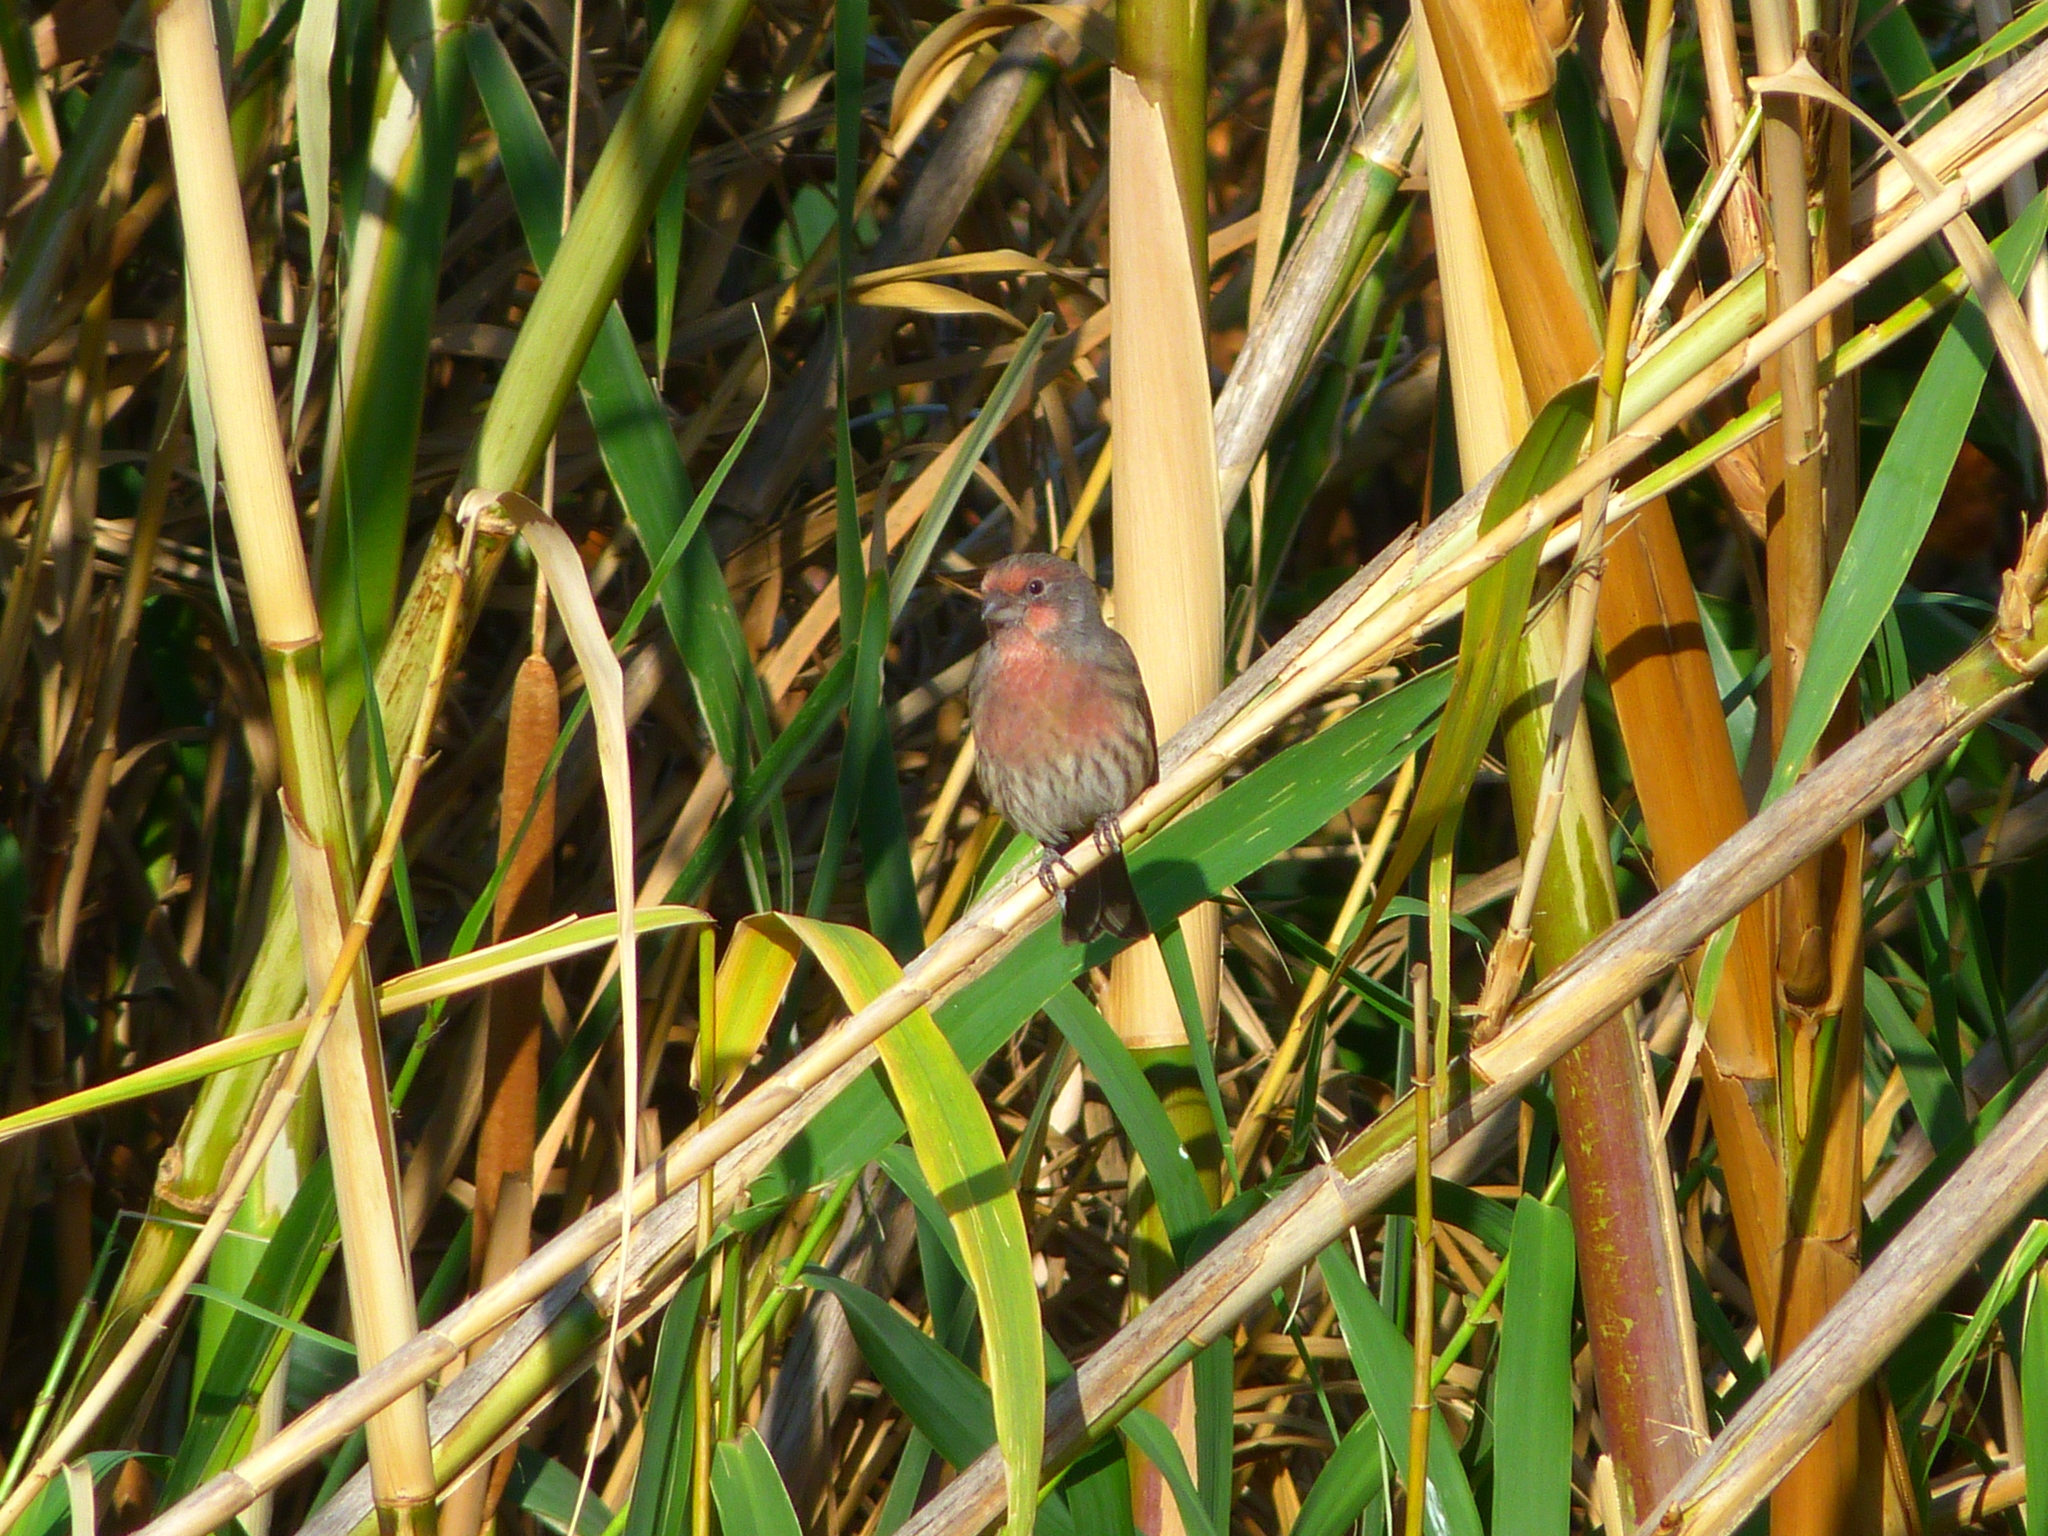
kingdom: Animalia
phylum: Chordata
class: Aves
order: Passeriformes
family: Fringillidae
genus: Haemorhous
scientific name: Haemorhous mexicanus
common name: House finch
